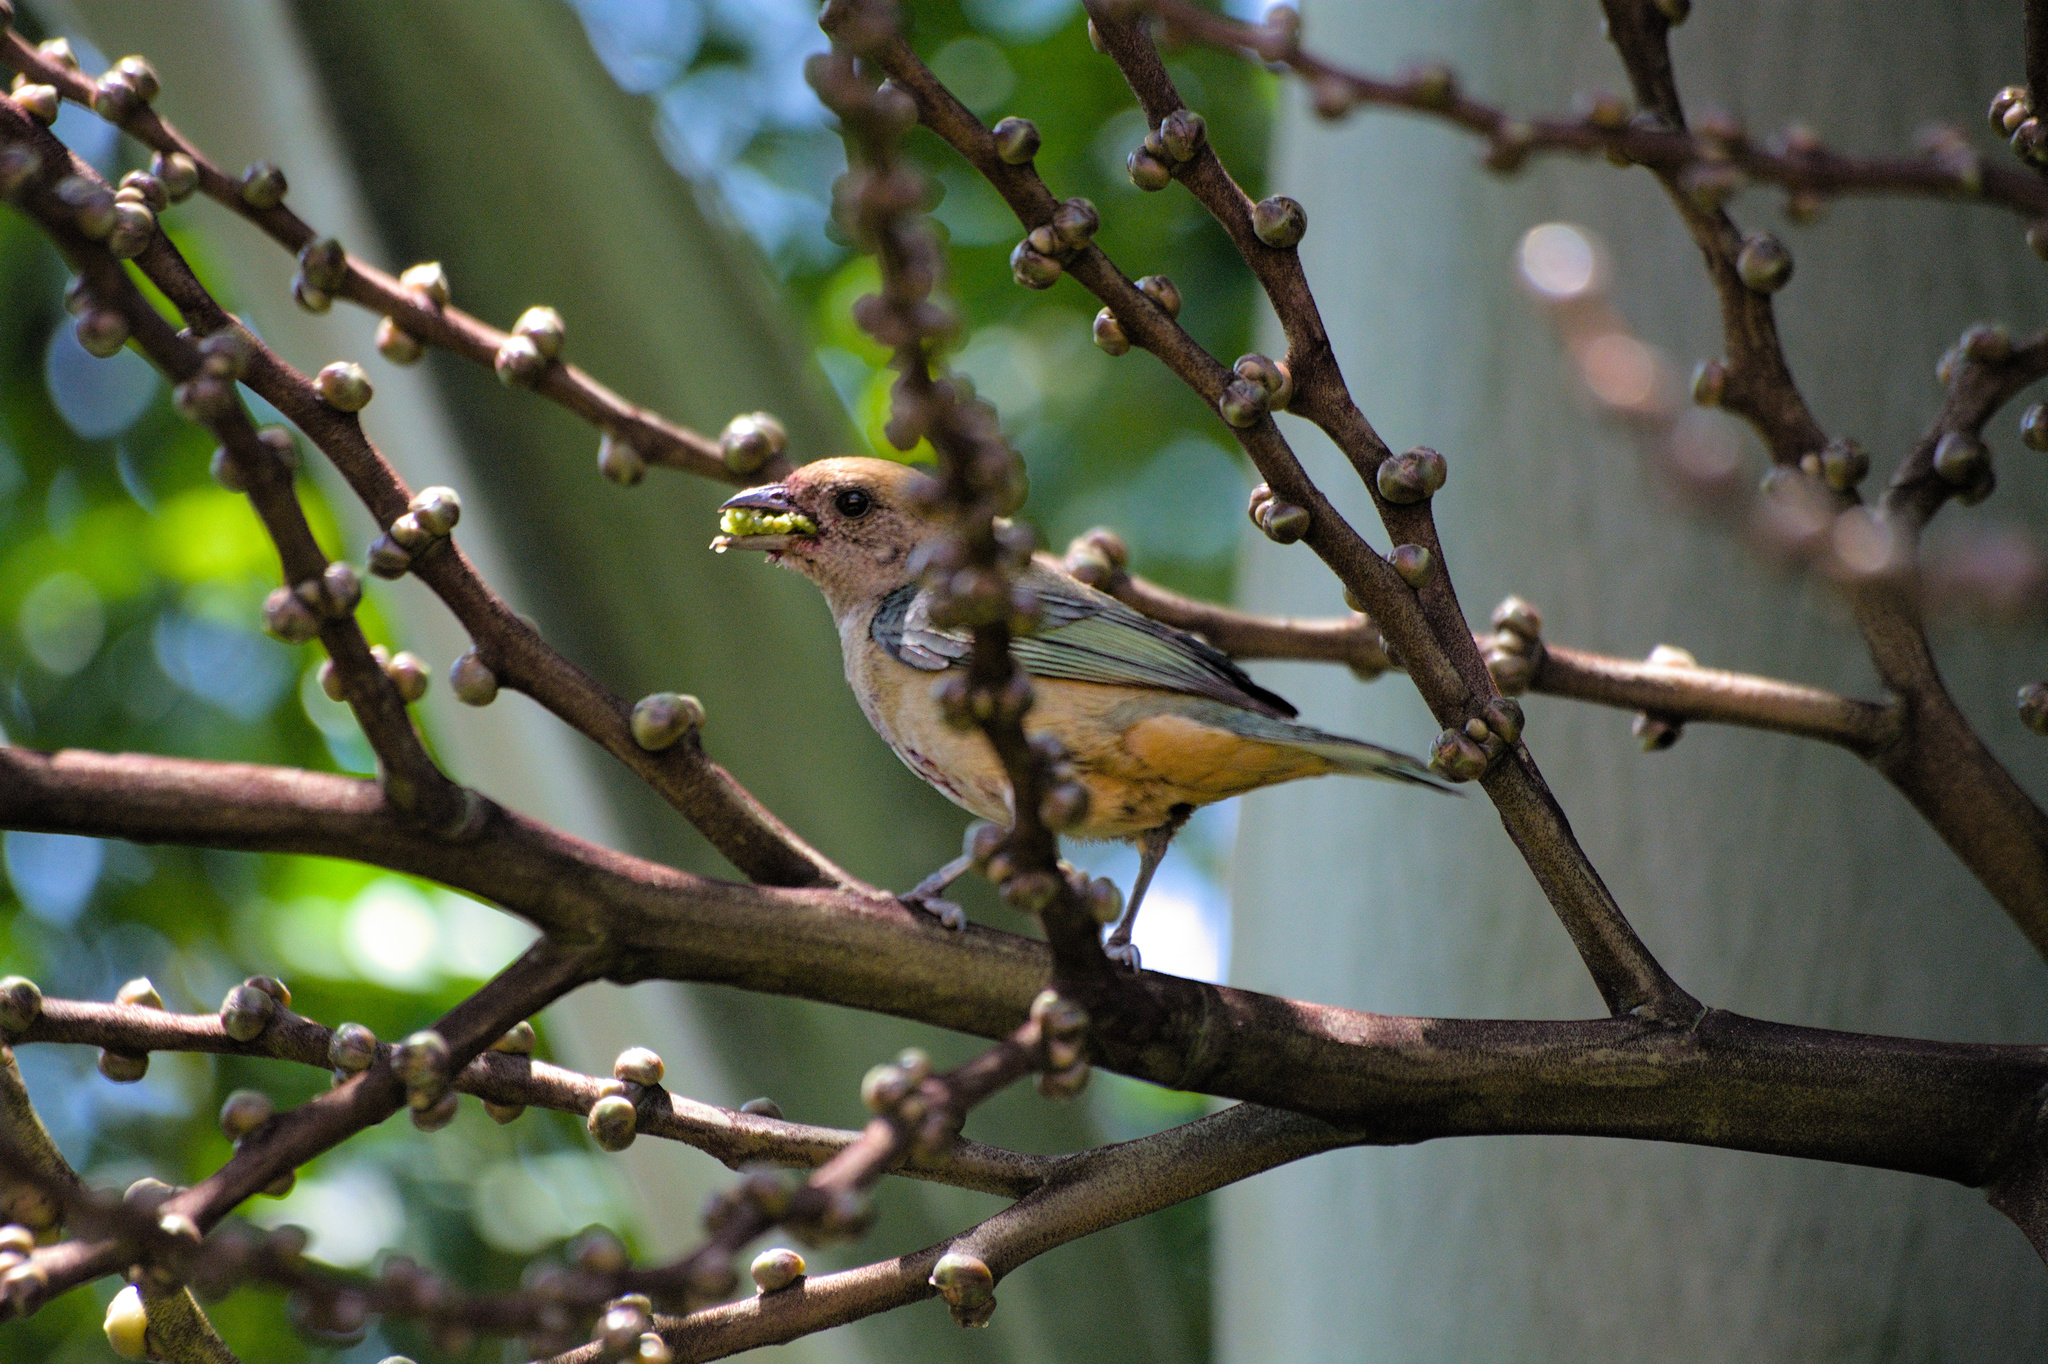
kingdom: Animalia
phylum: Chordata
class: Aves
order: Passeriformes
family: Thraupidae
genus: Stilpnia
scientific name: Stilpnia cayana
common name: Burnished-buff tanager
